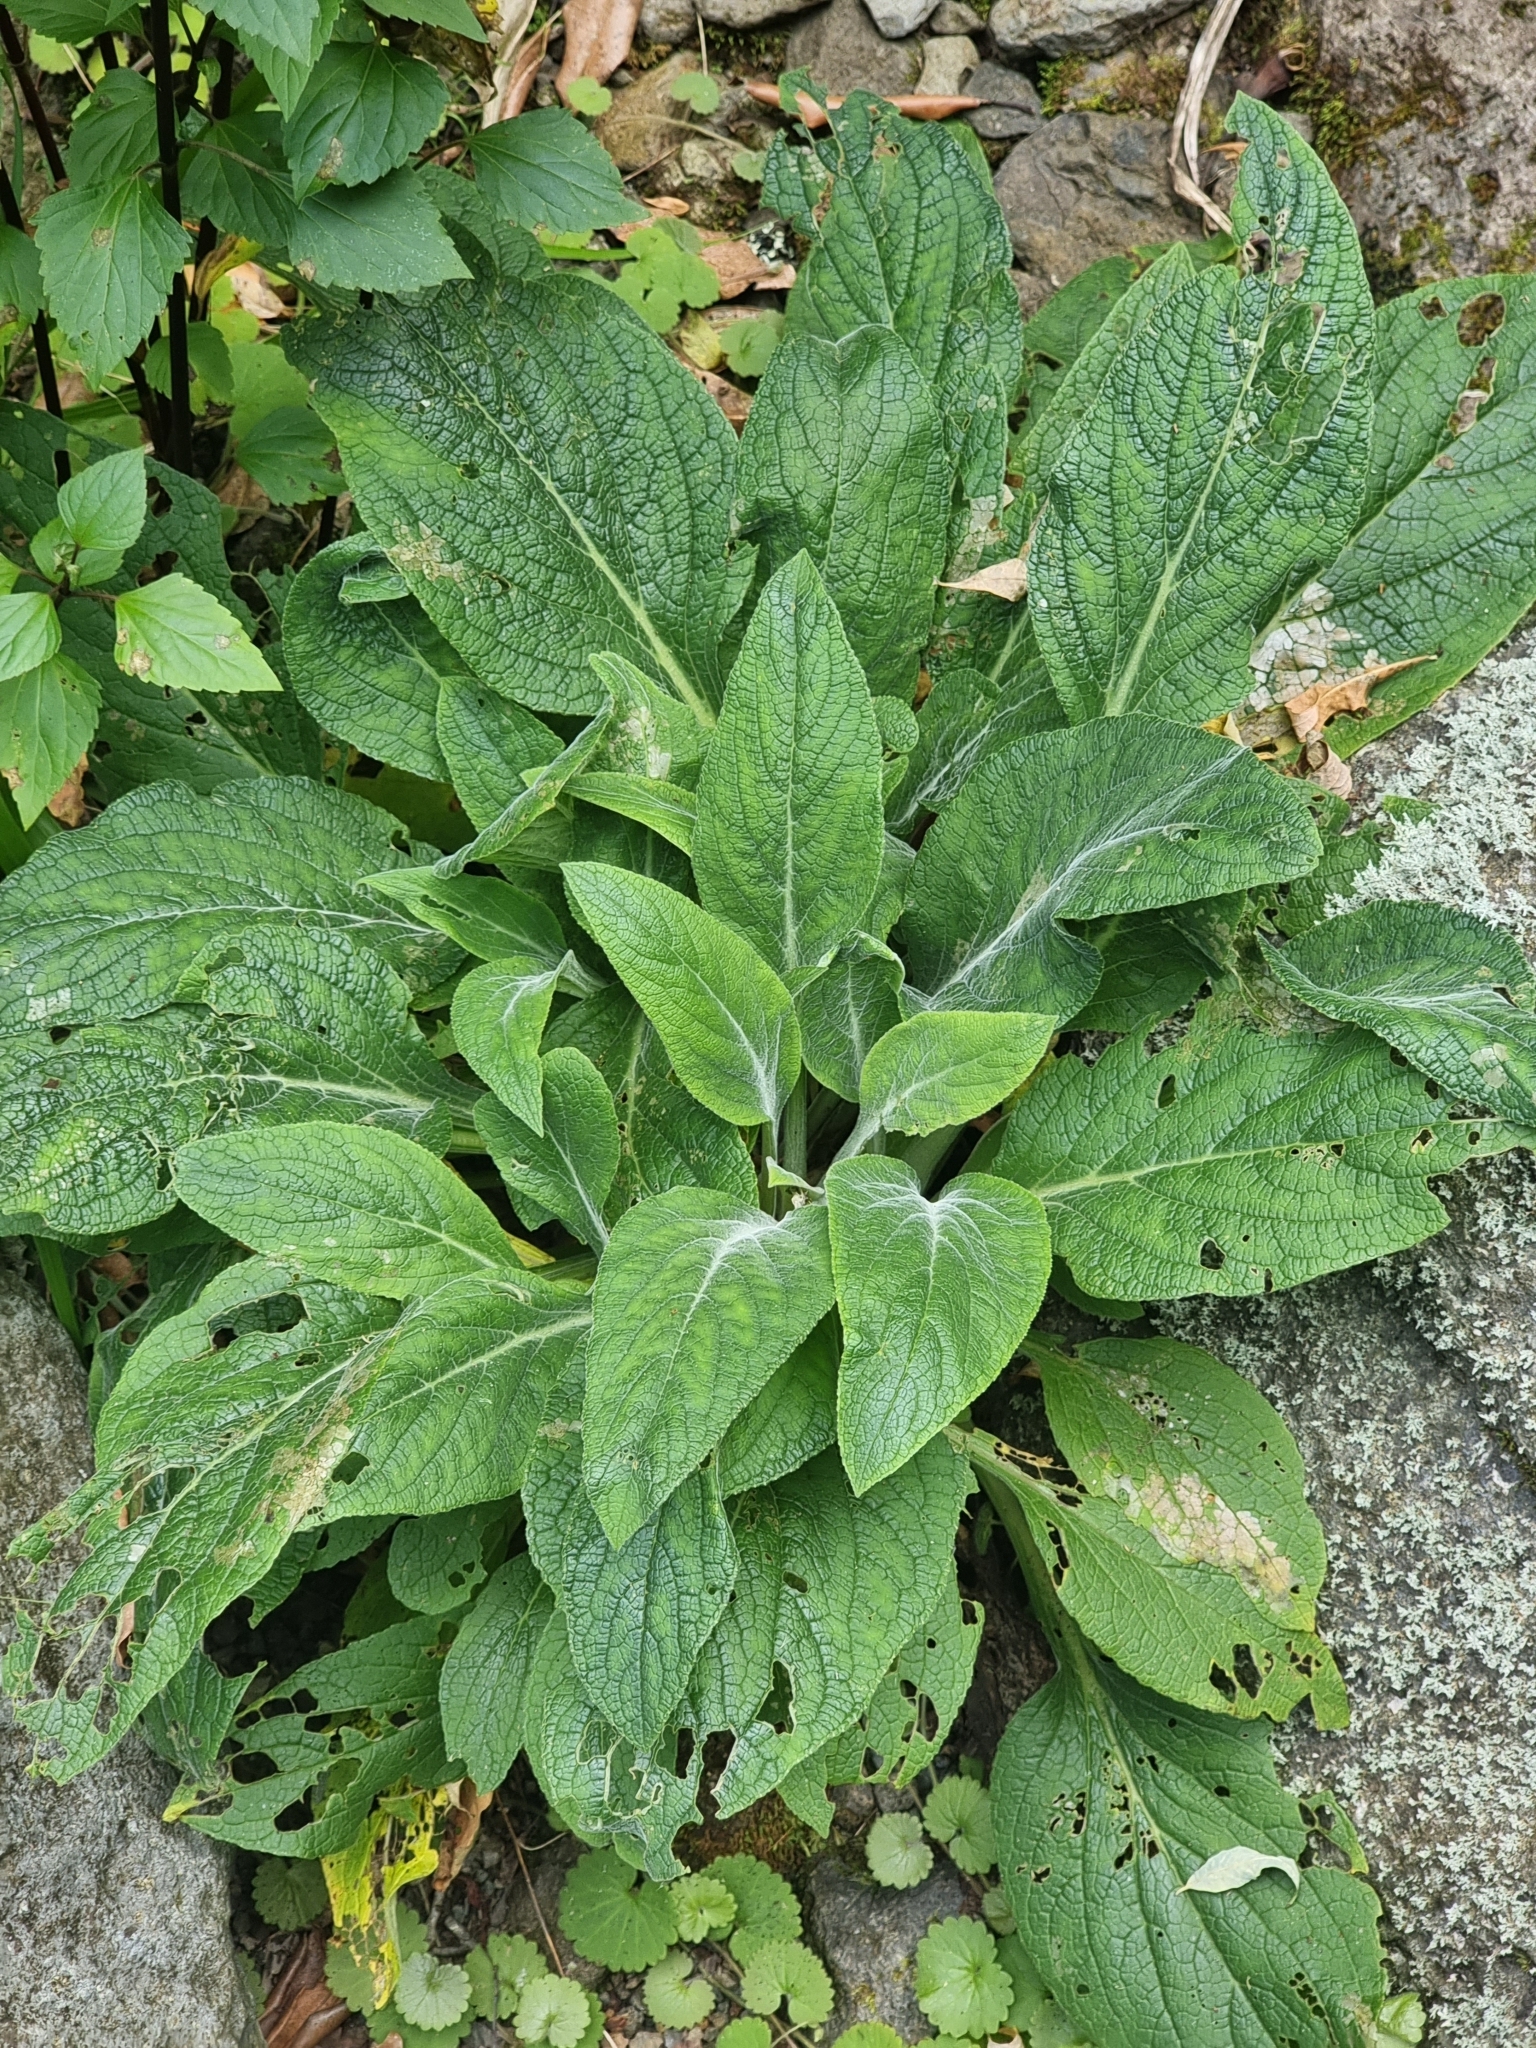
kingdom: Plantae
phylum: Tracheophyta
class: Magnoliopsida
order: Lamiales
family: Plantaginaceae
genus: Digitalis
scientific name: Digitalis purpurea
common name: Foxglove
